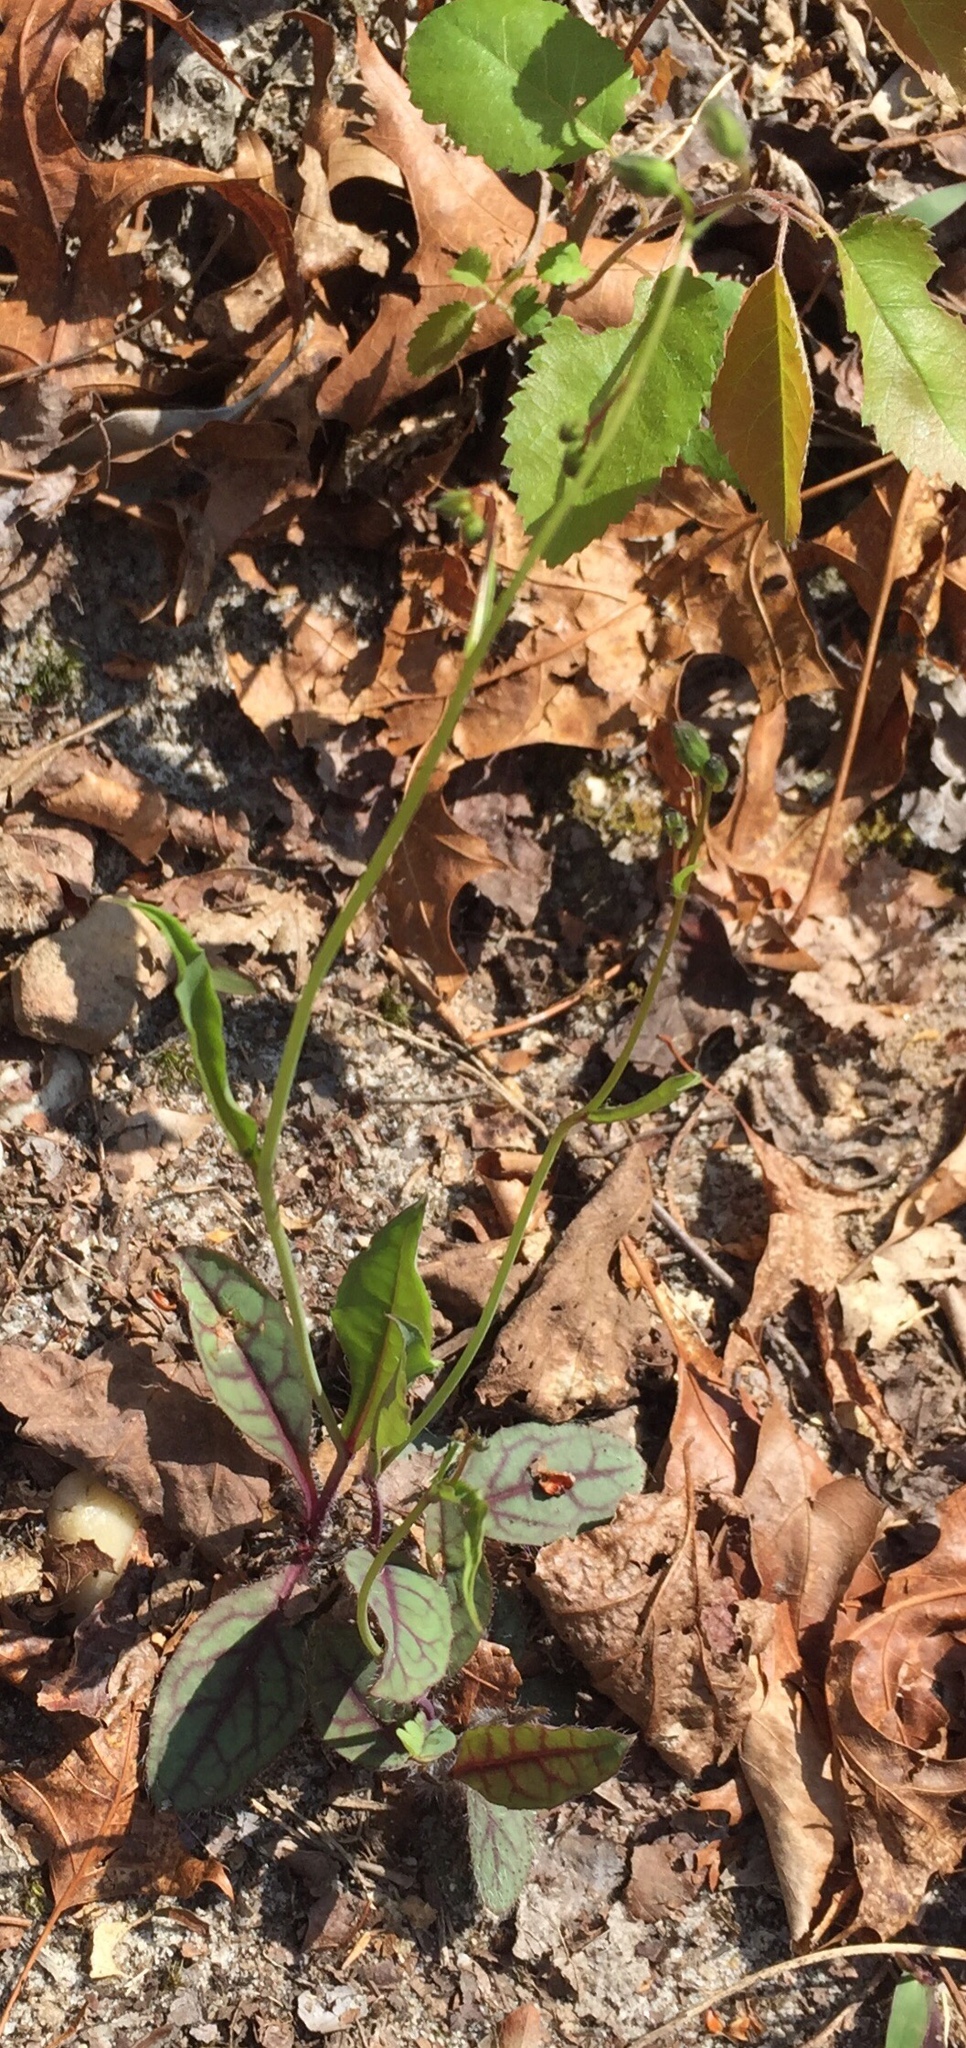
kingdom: Plantae
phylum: Tracheophyta
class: Magnoliopsida
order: Asterales
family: Asteraceae
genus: Hieracium
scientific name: Hieracium venosum
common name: Rattlesnake hawkweed
